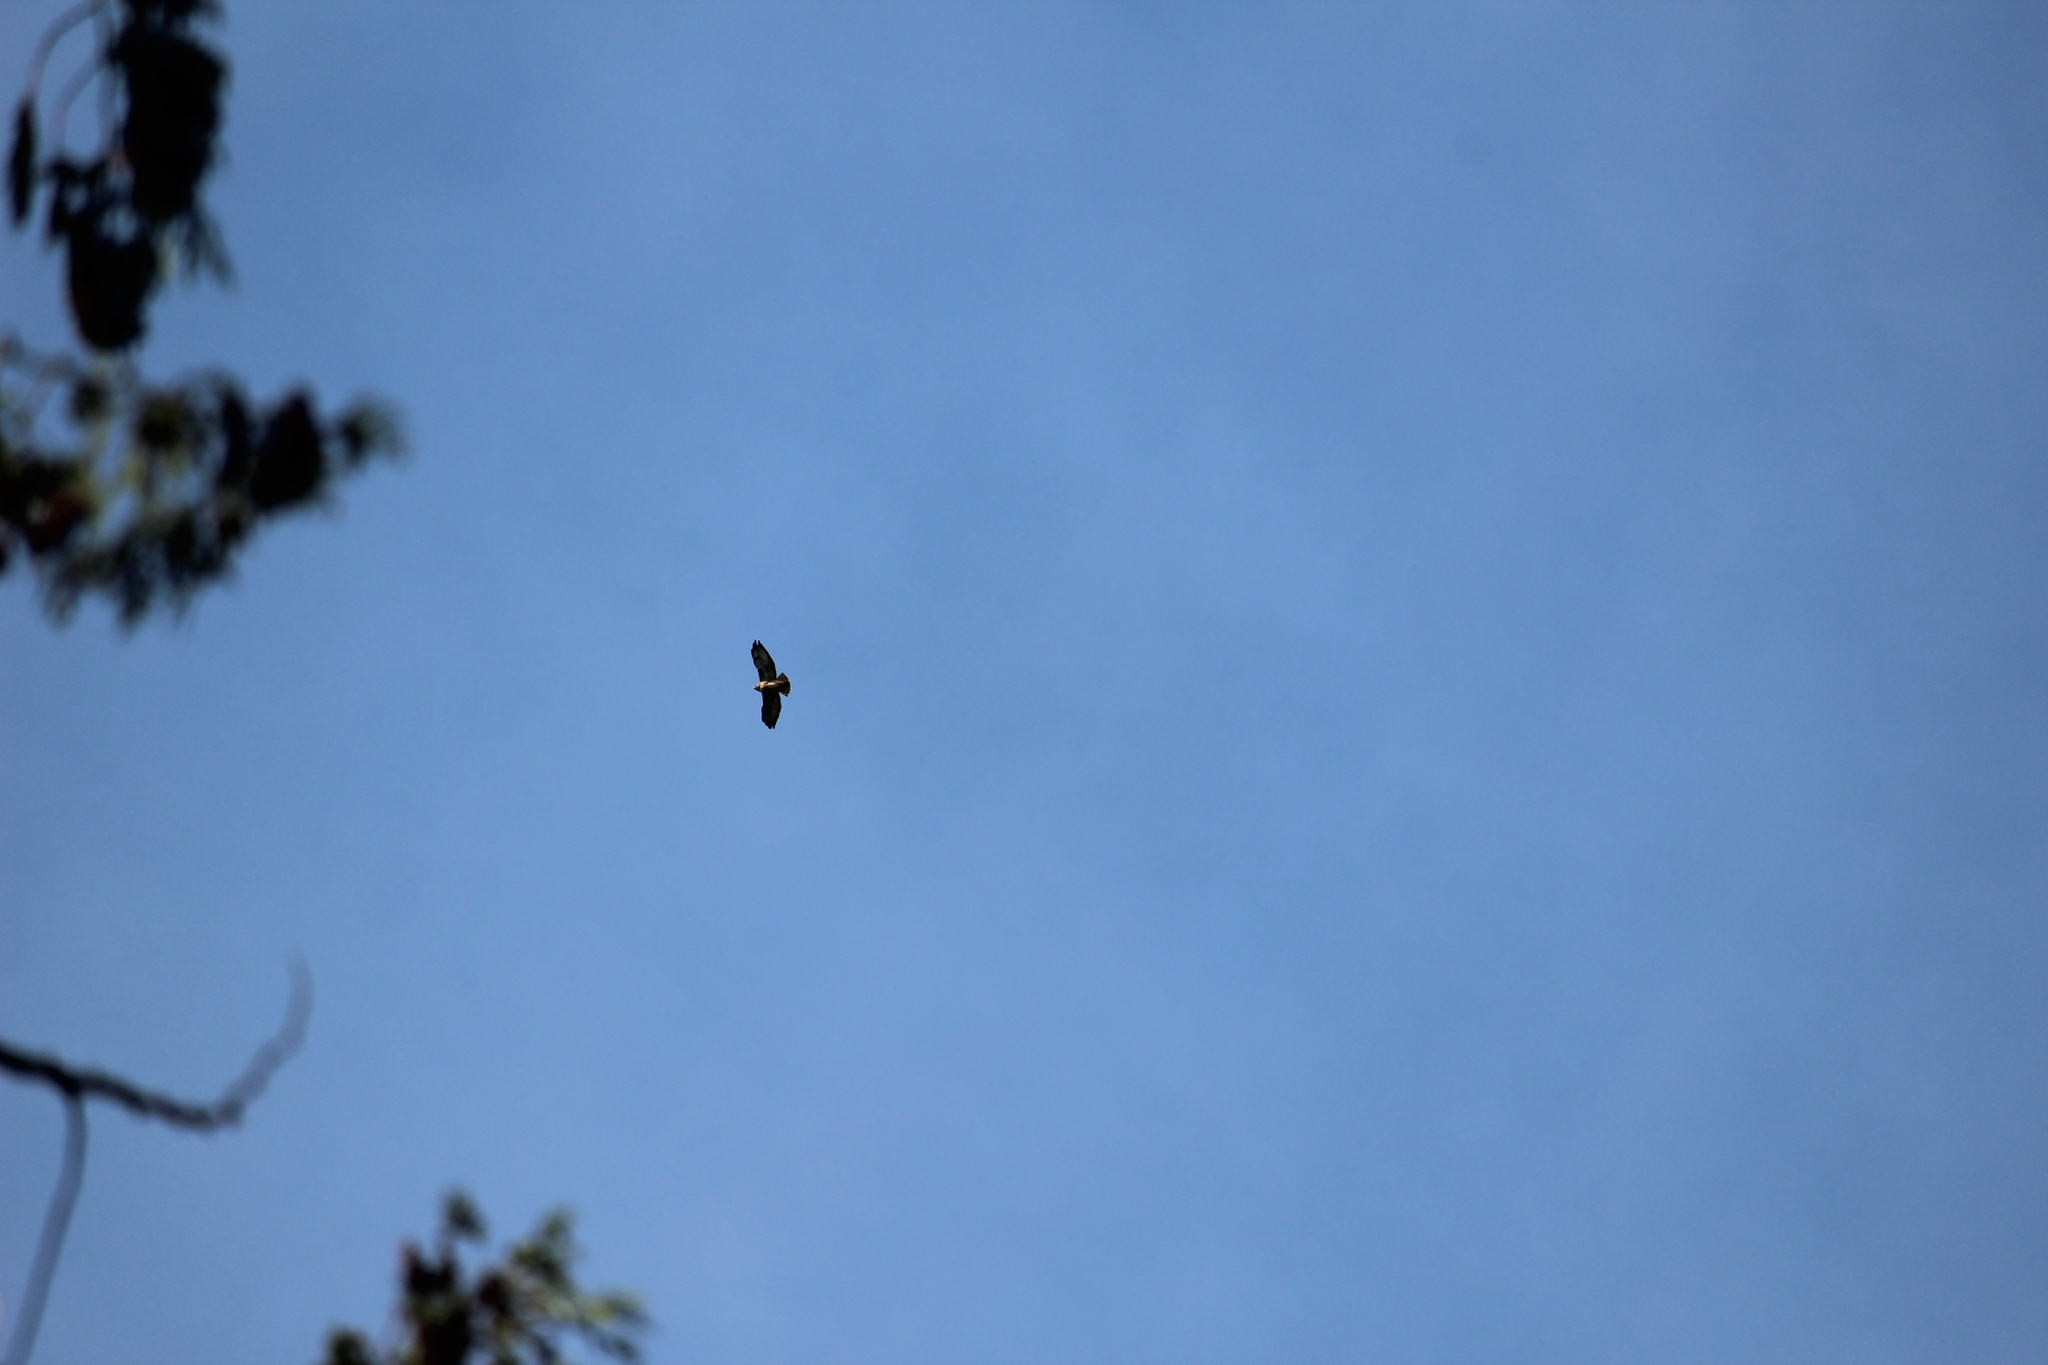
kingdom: Animalia
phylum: Chordata
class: Aves
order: Accipitriformes
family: Accipitridae
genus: Buteo
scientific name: Buteo jamaicensis
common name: Red-tailed hawk
